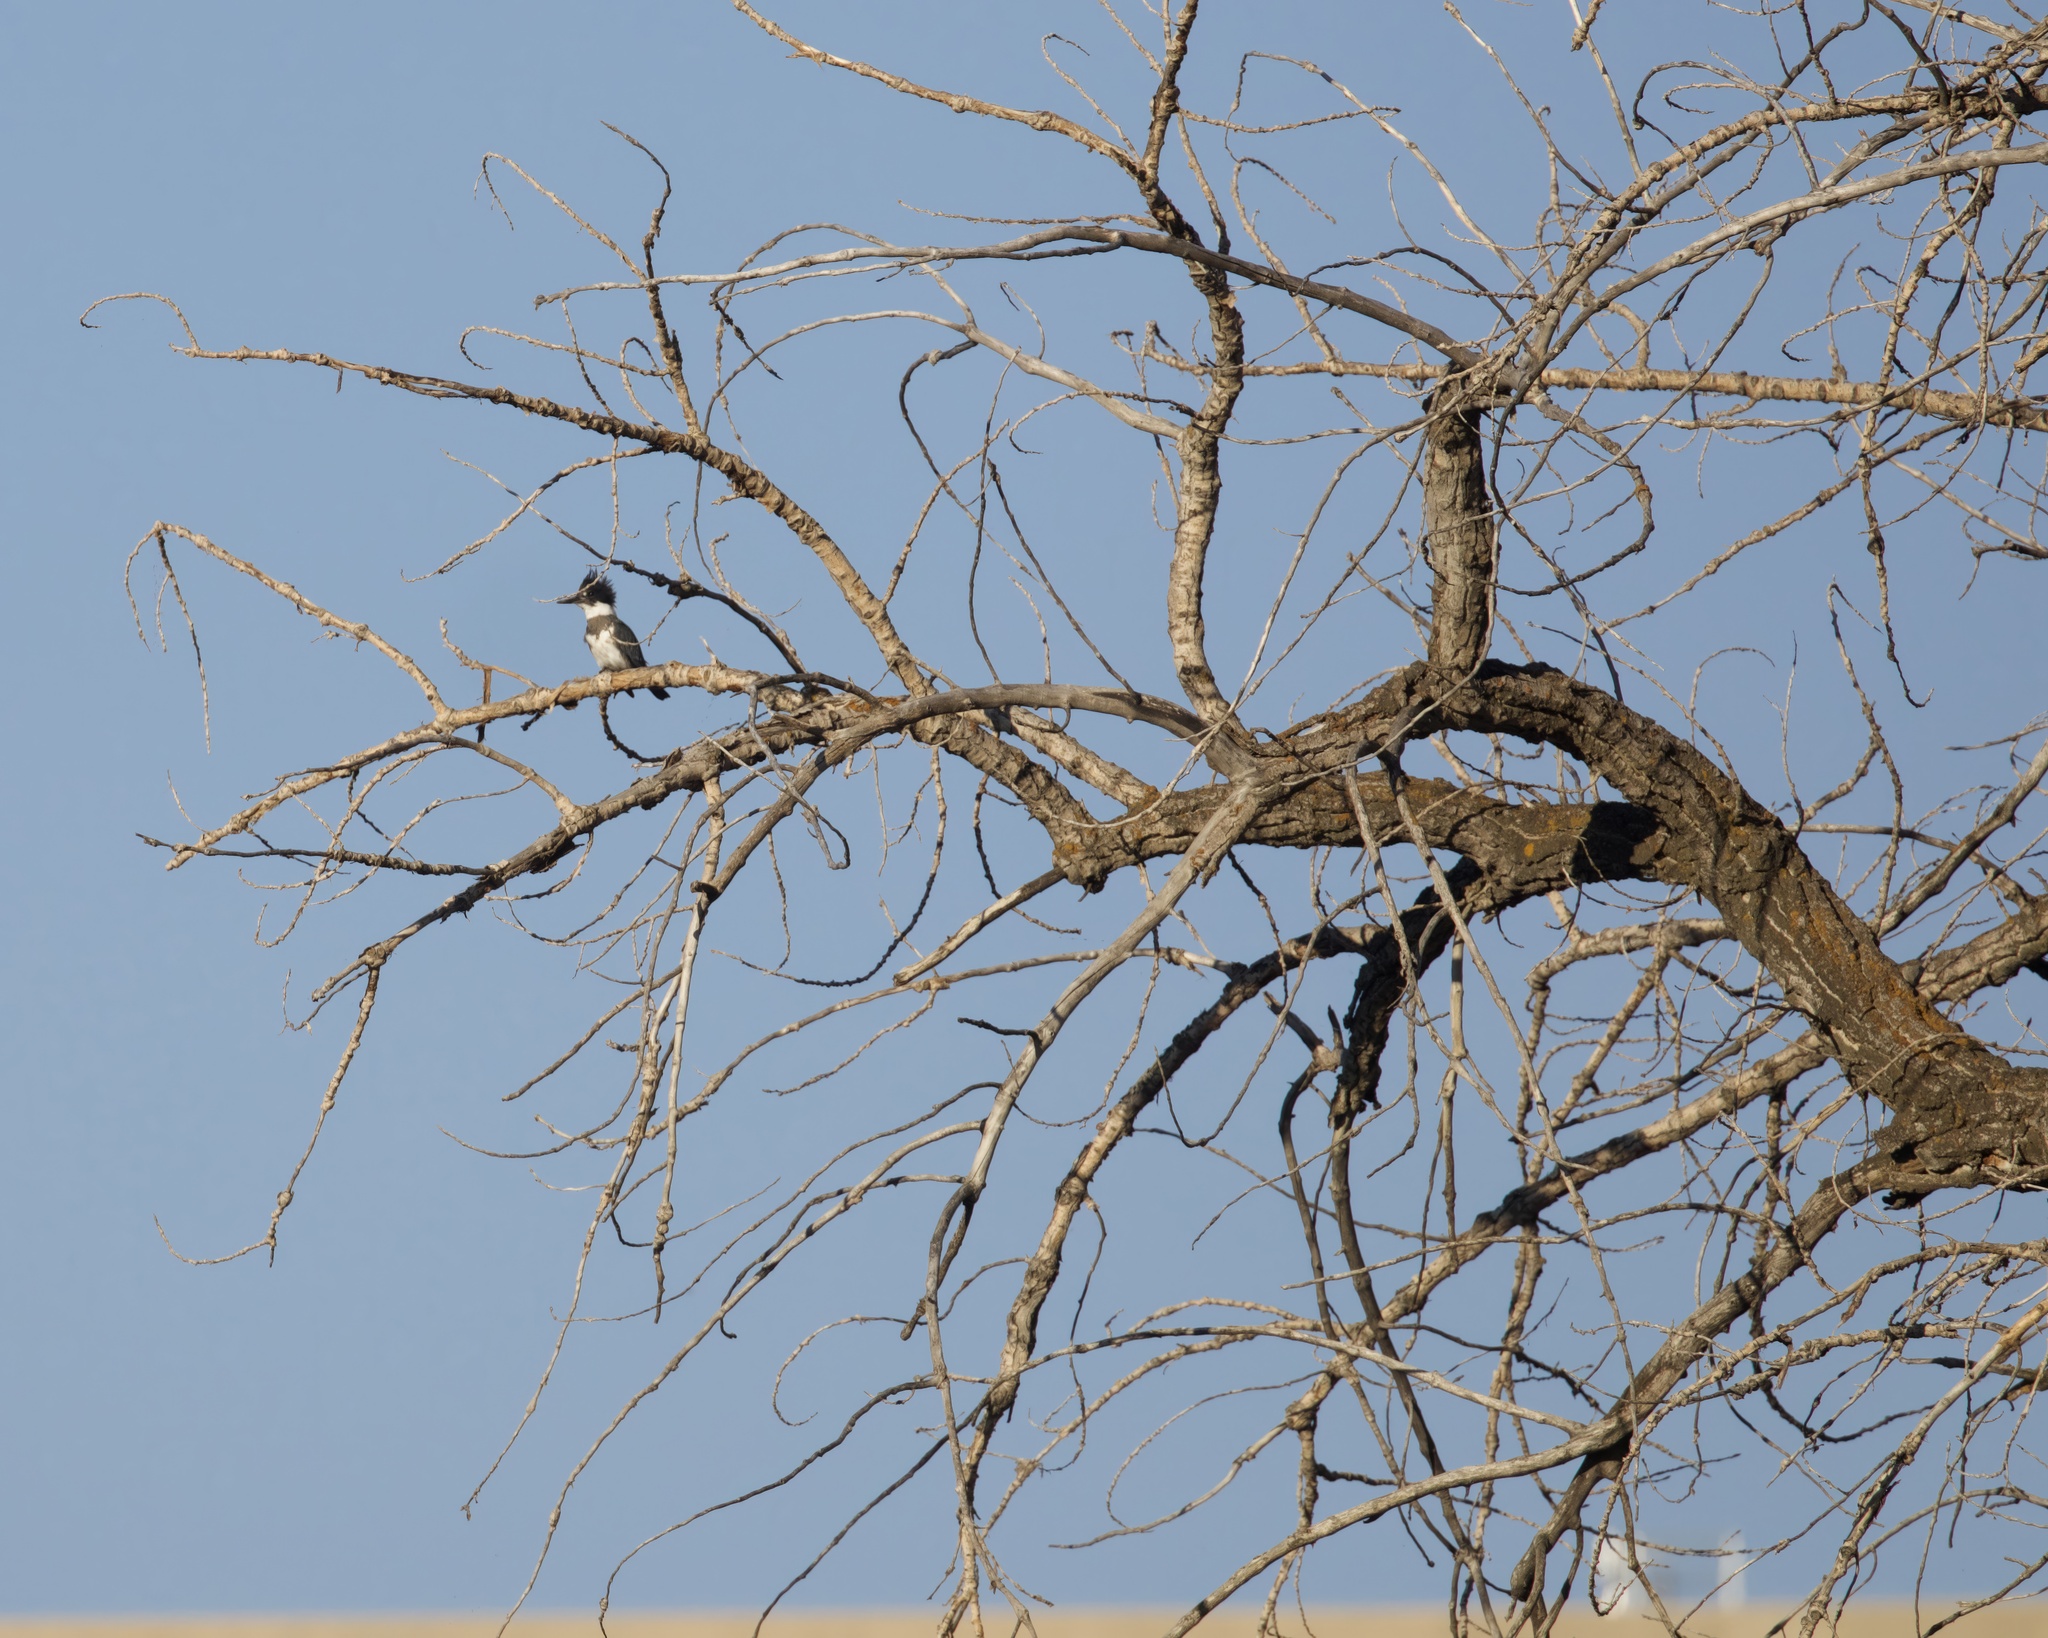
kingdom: Animalia
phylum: Chordata
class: Aves
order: Coraciiformes
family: Alcedinidae
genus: Megaceryle
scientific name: Megaceryle alcyon
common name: Belted kingfisher
